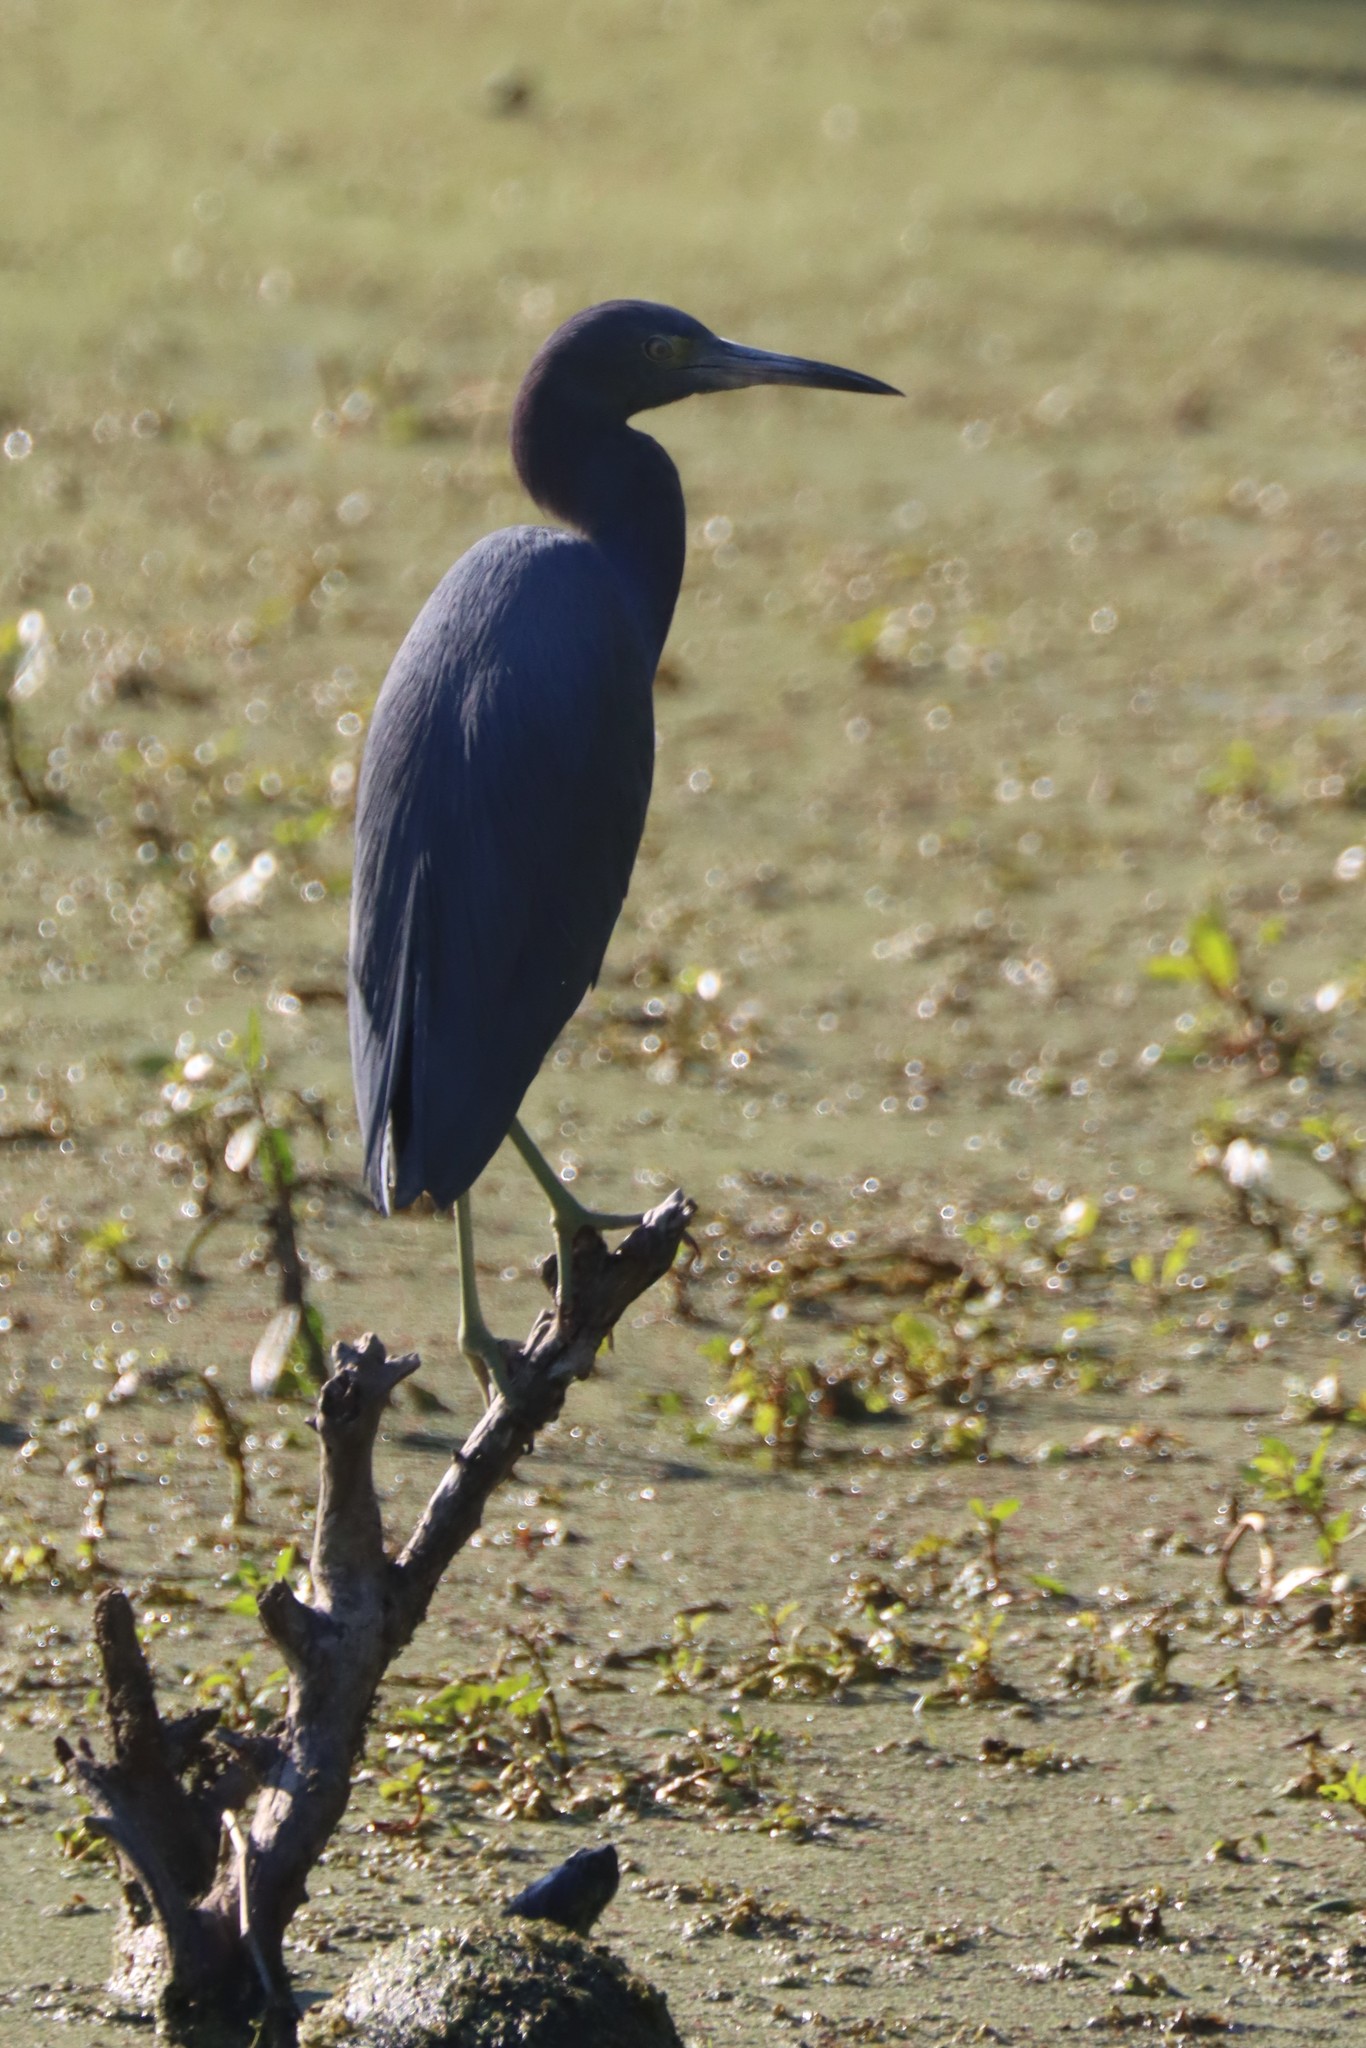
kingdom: Animalia
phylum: Chordata
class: Aves
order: Pelecaniformes
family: Ardeidae
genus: Egretta
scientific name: Egretta caerulea
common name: Little blue heron
